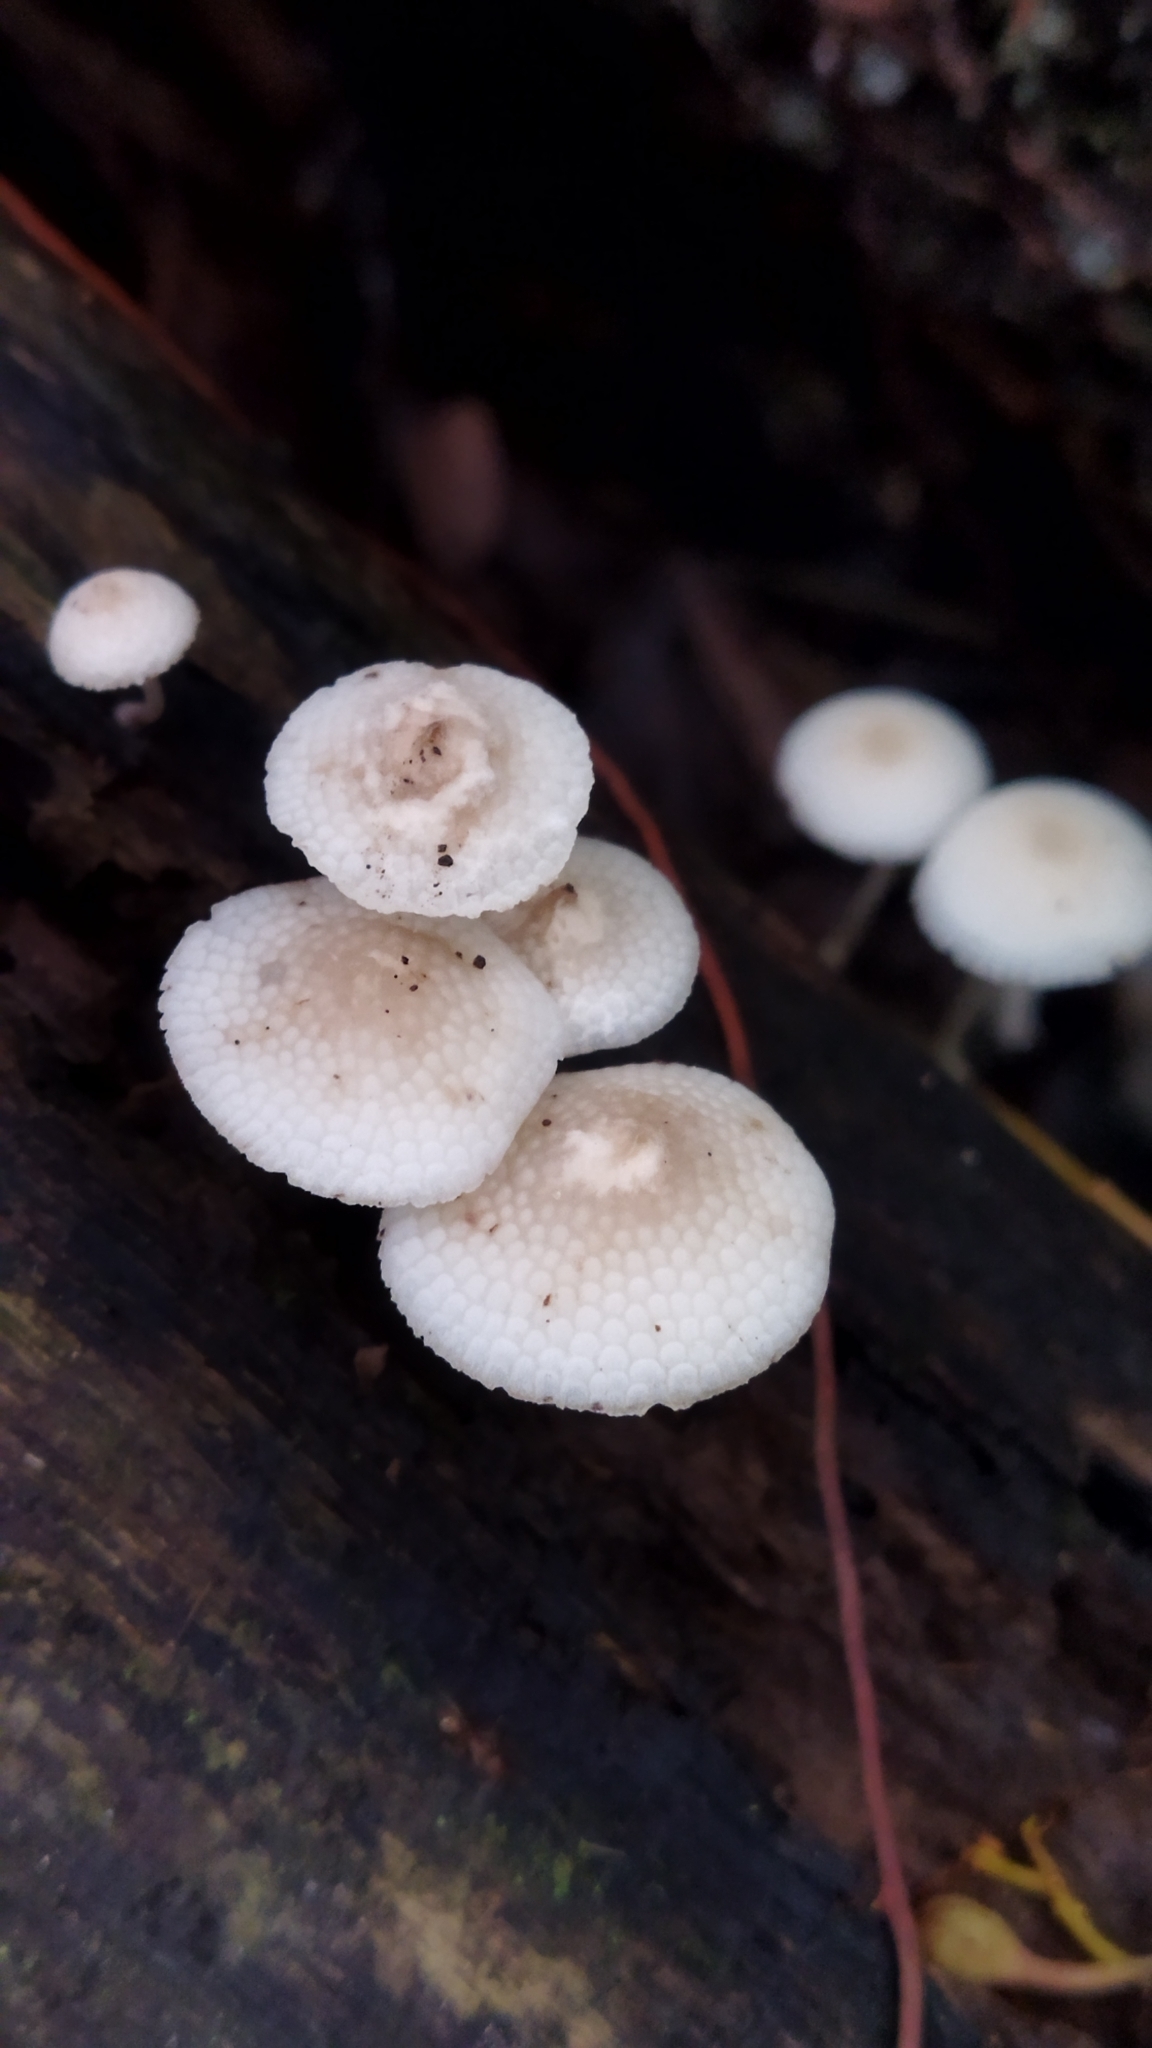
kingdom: Fungi
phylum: Basidiomycota
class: Agaricomycetes
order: Agaricales
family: Mycenaceae
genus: Filoboletus
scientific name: Filoboletus manipularis
